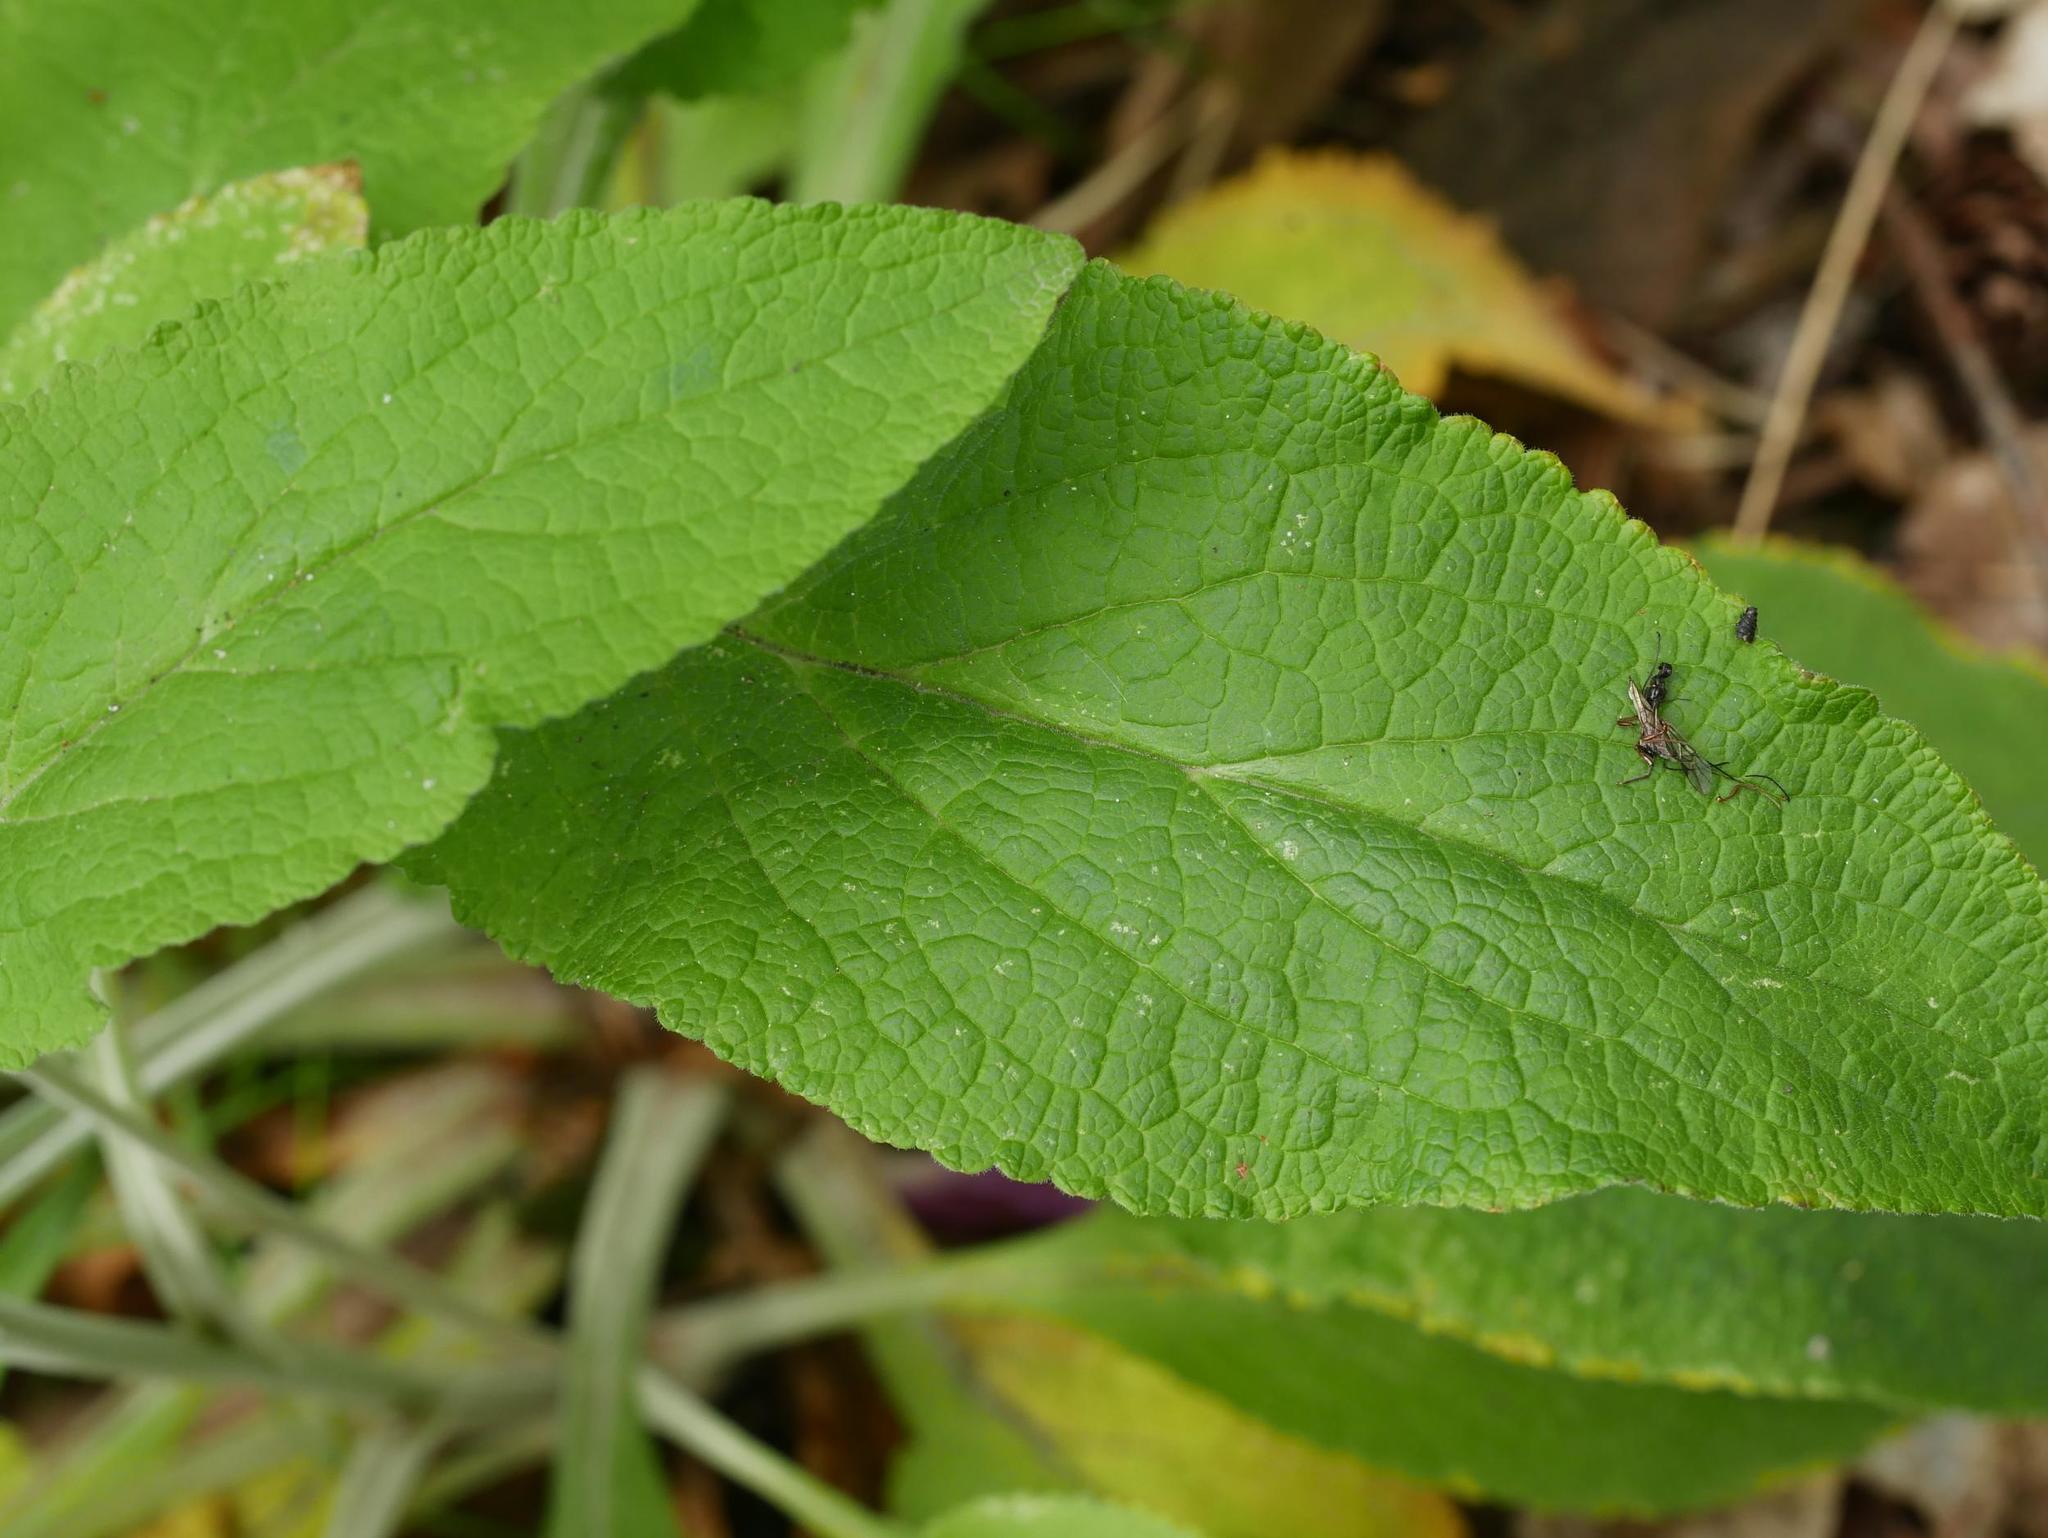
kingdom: Plantae
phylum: Tracheophyta
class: Magnoliopsida
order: Lamiales
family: Plantaginaceae
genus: Digitalis
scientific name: Digitalis purpurea
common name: Foxglove
